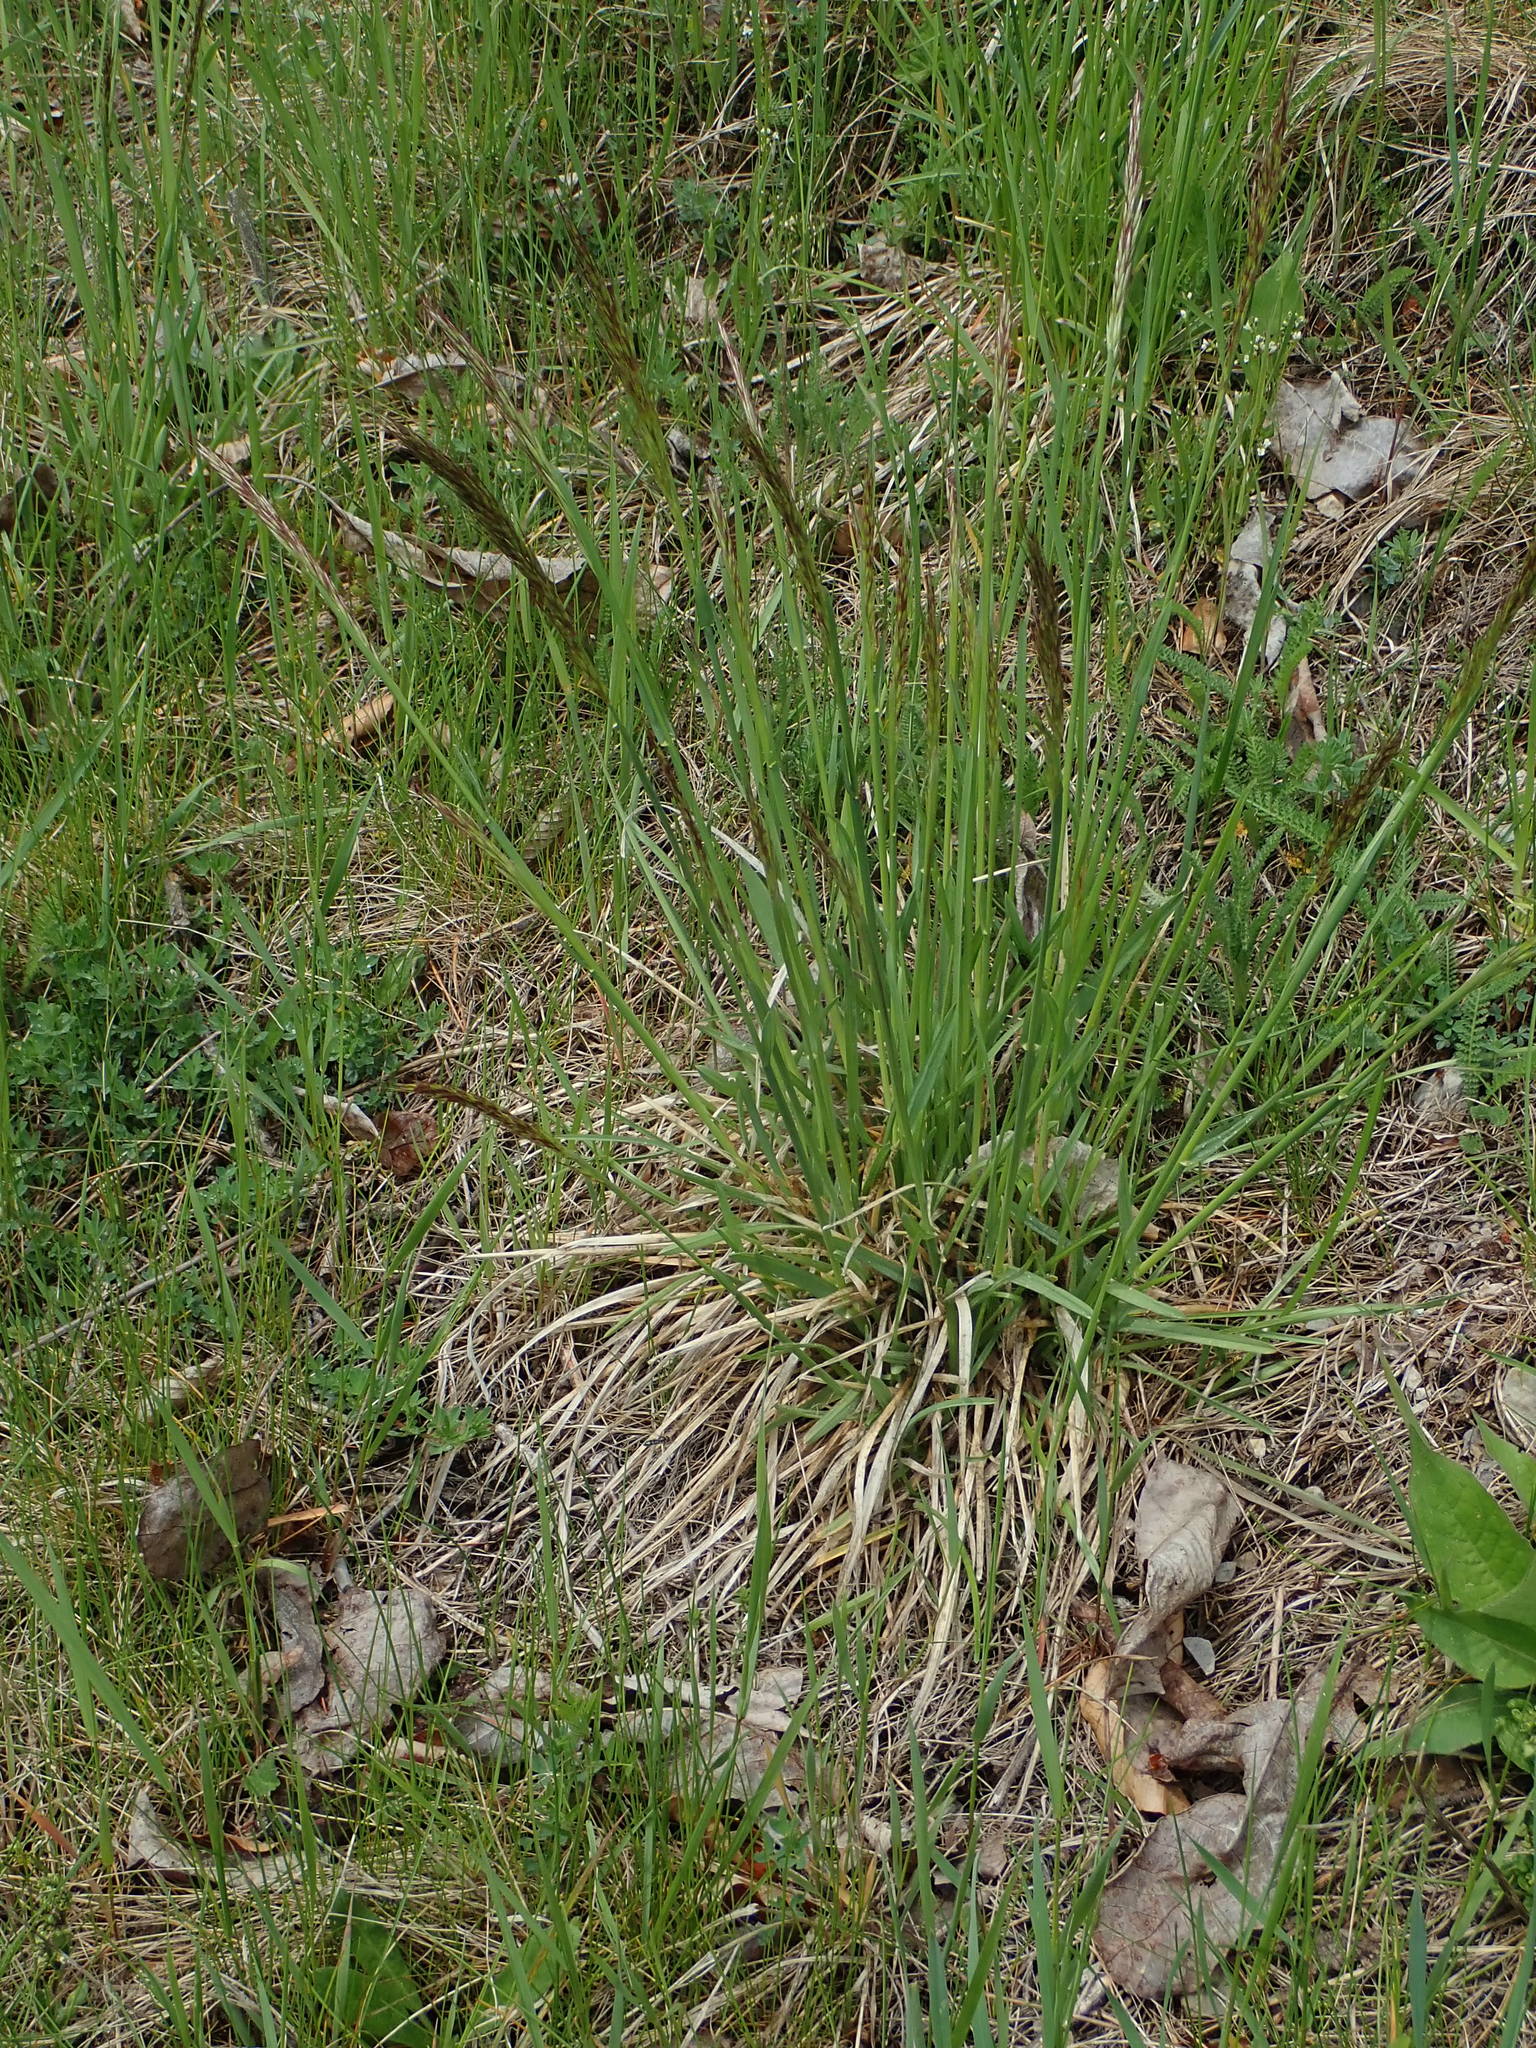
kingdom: Plantae
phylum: Tracheophyta
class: Liliopsida
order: Poales
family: Poaceae
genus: Bromus
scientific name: Bromus erectus
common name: Erect brome
